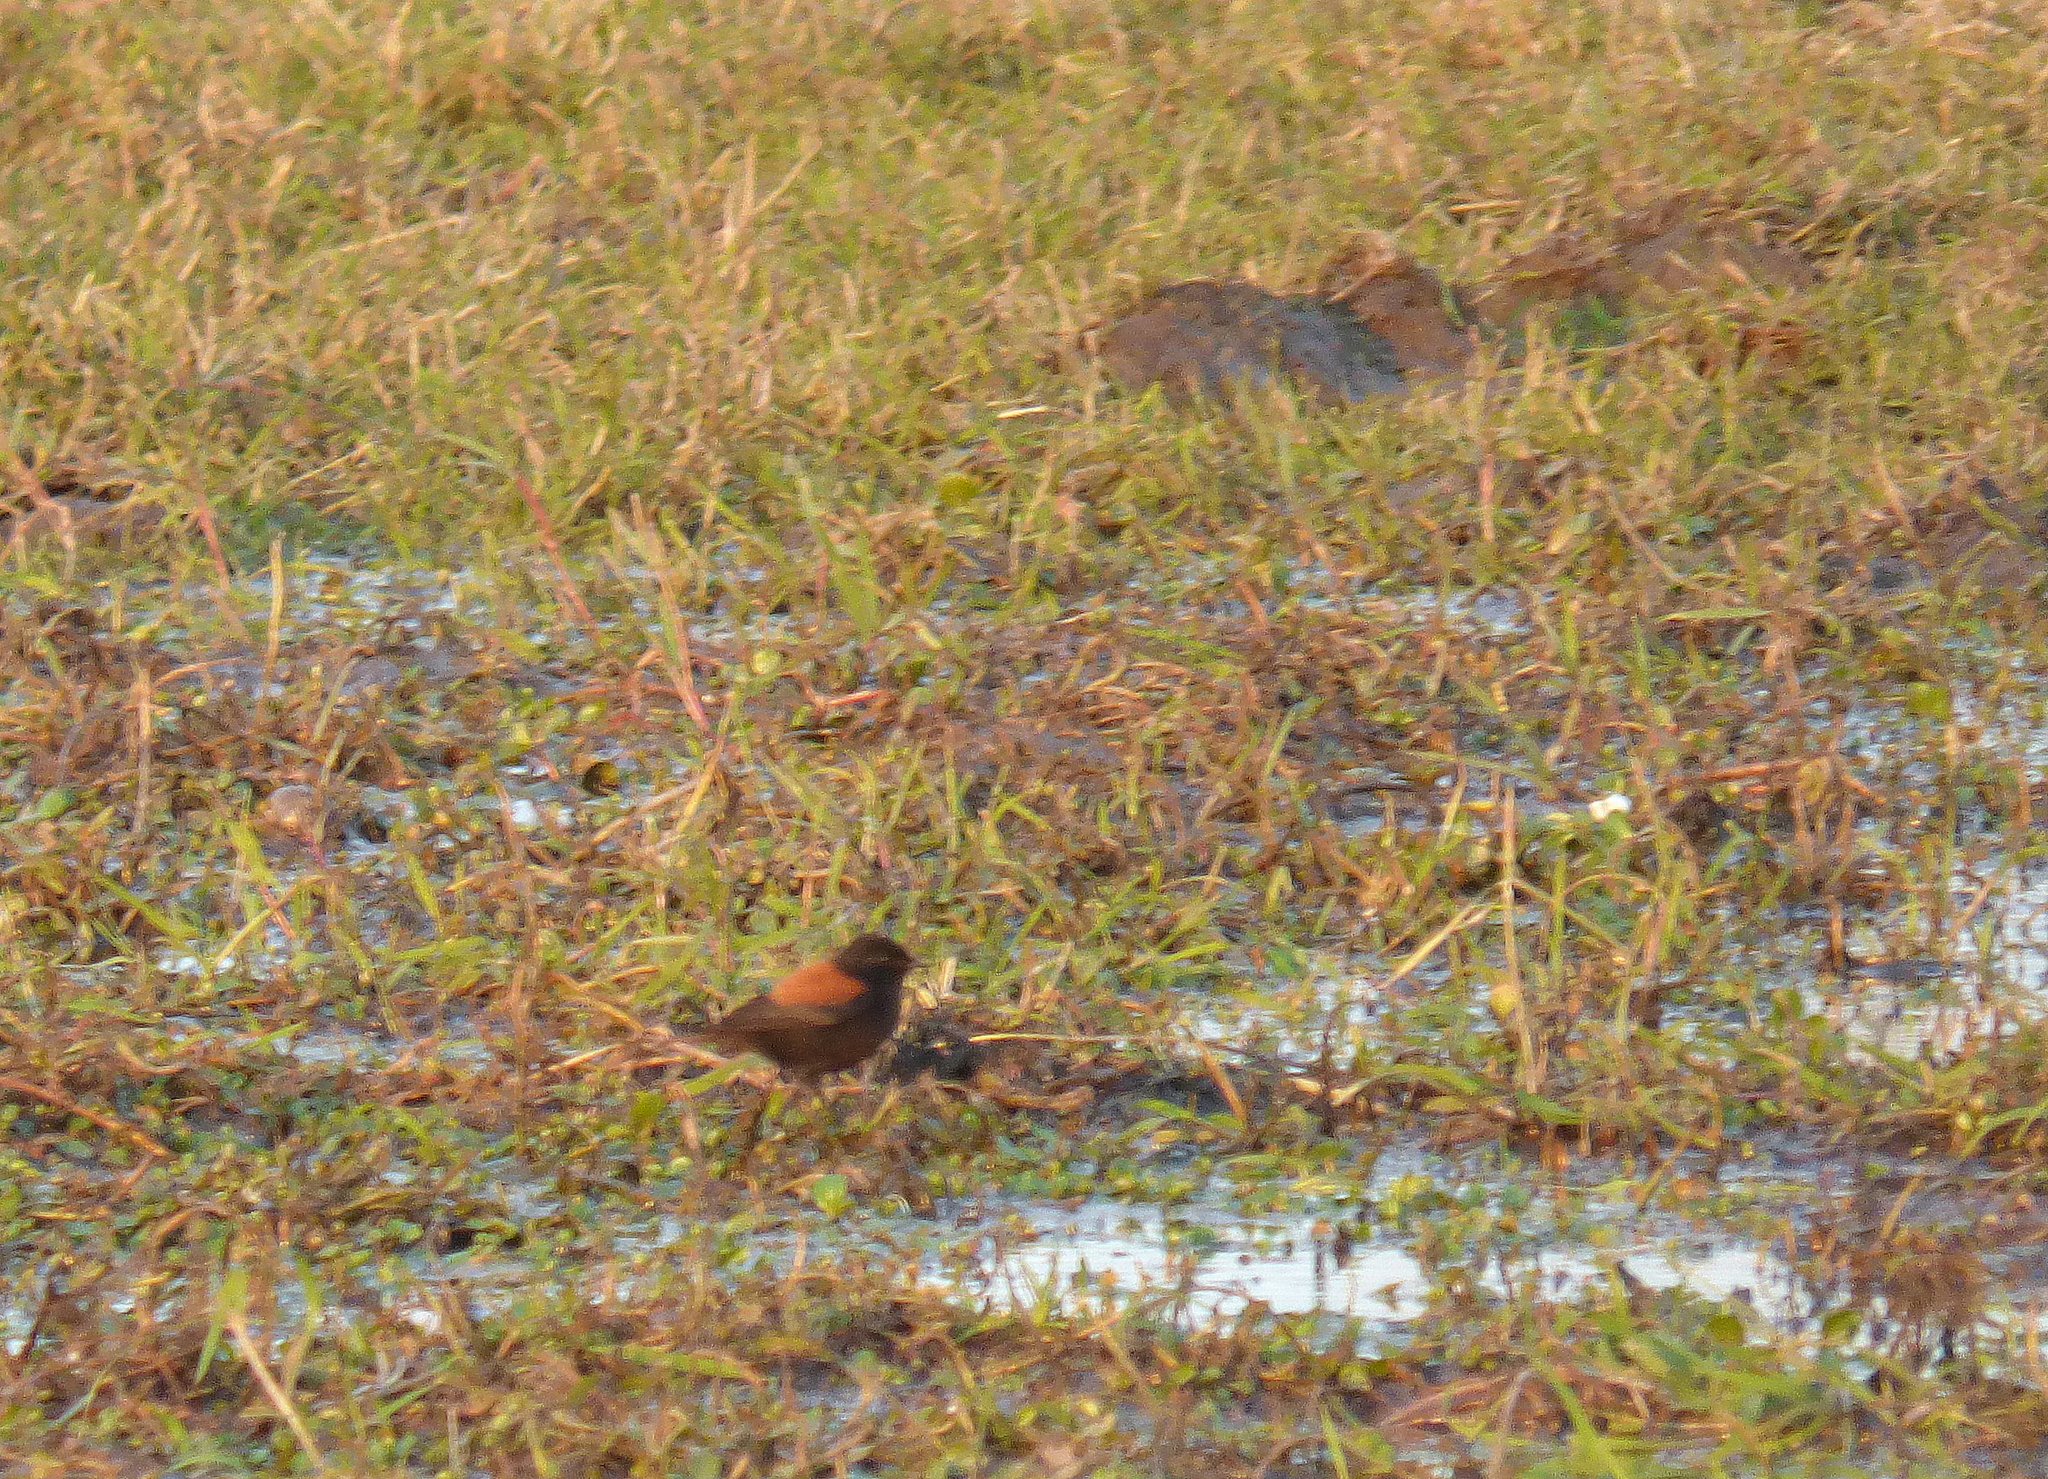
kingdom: Animalia
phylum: Chordata
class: Aves
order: Passeriformes
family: Tyrannidae
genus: Lessonia
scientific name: Lessonia rufa
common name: Austral negrito
